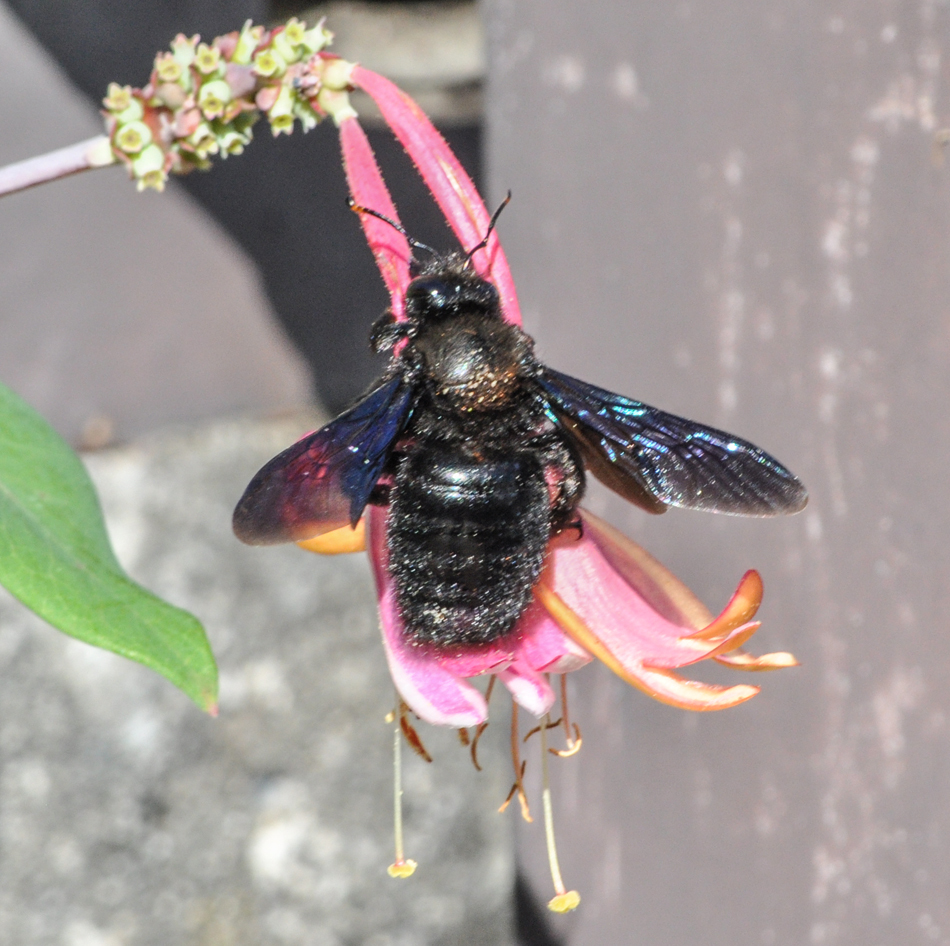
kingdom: Animalia
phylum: Arthropoda
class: Insecta
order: Hymenoptera
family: Apidae
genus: Xylocopa
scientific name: Xylocopa violacea
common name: Violet carpenter bee
